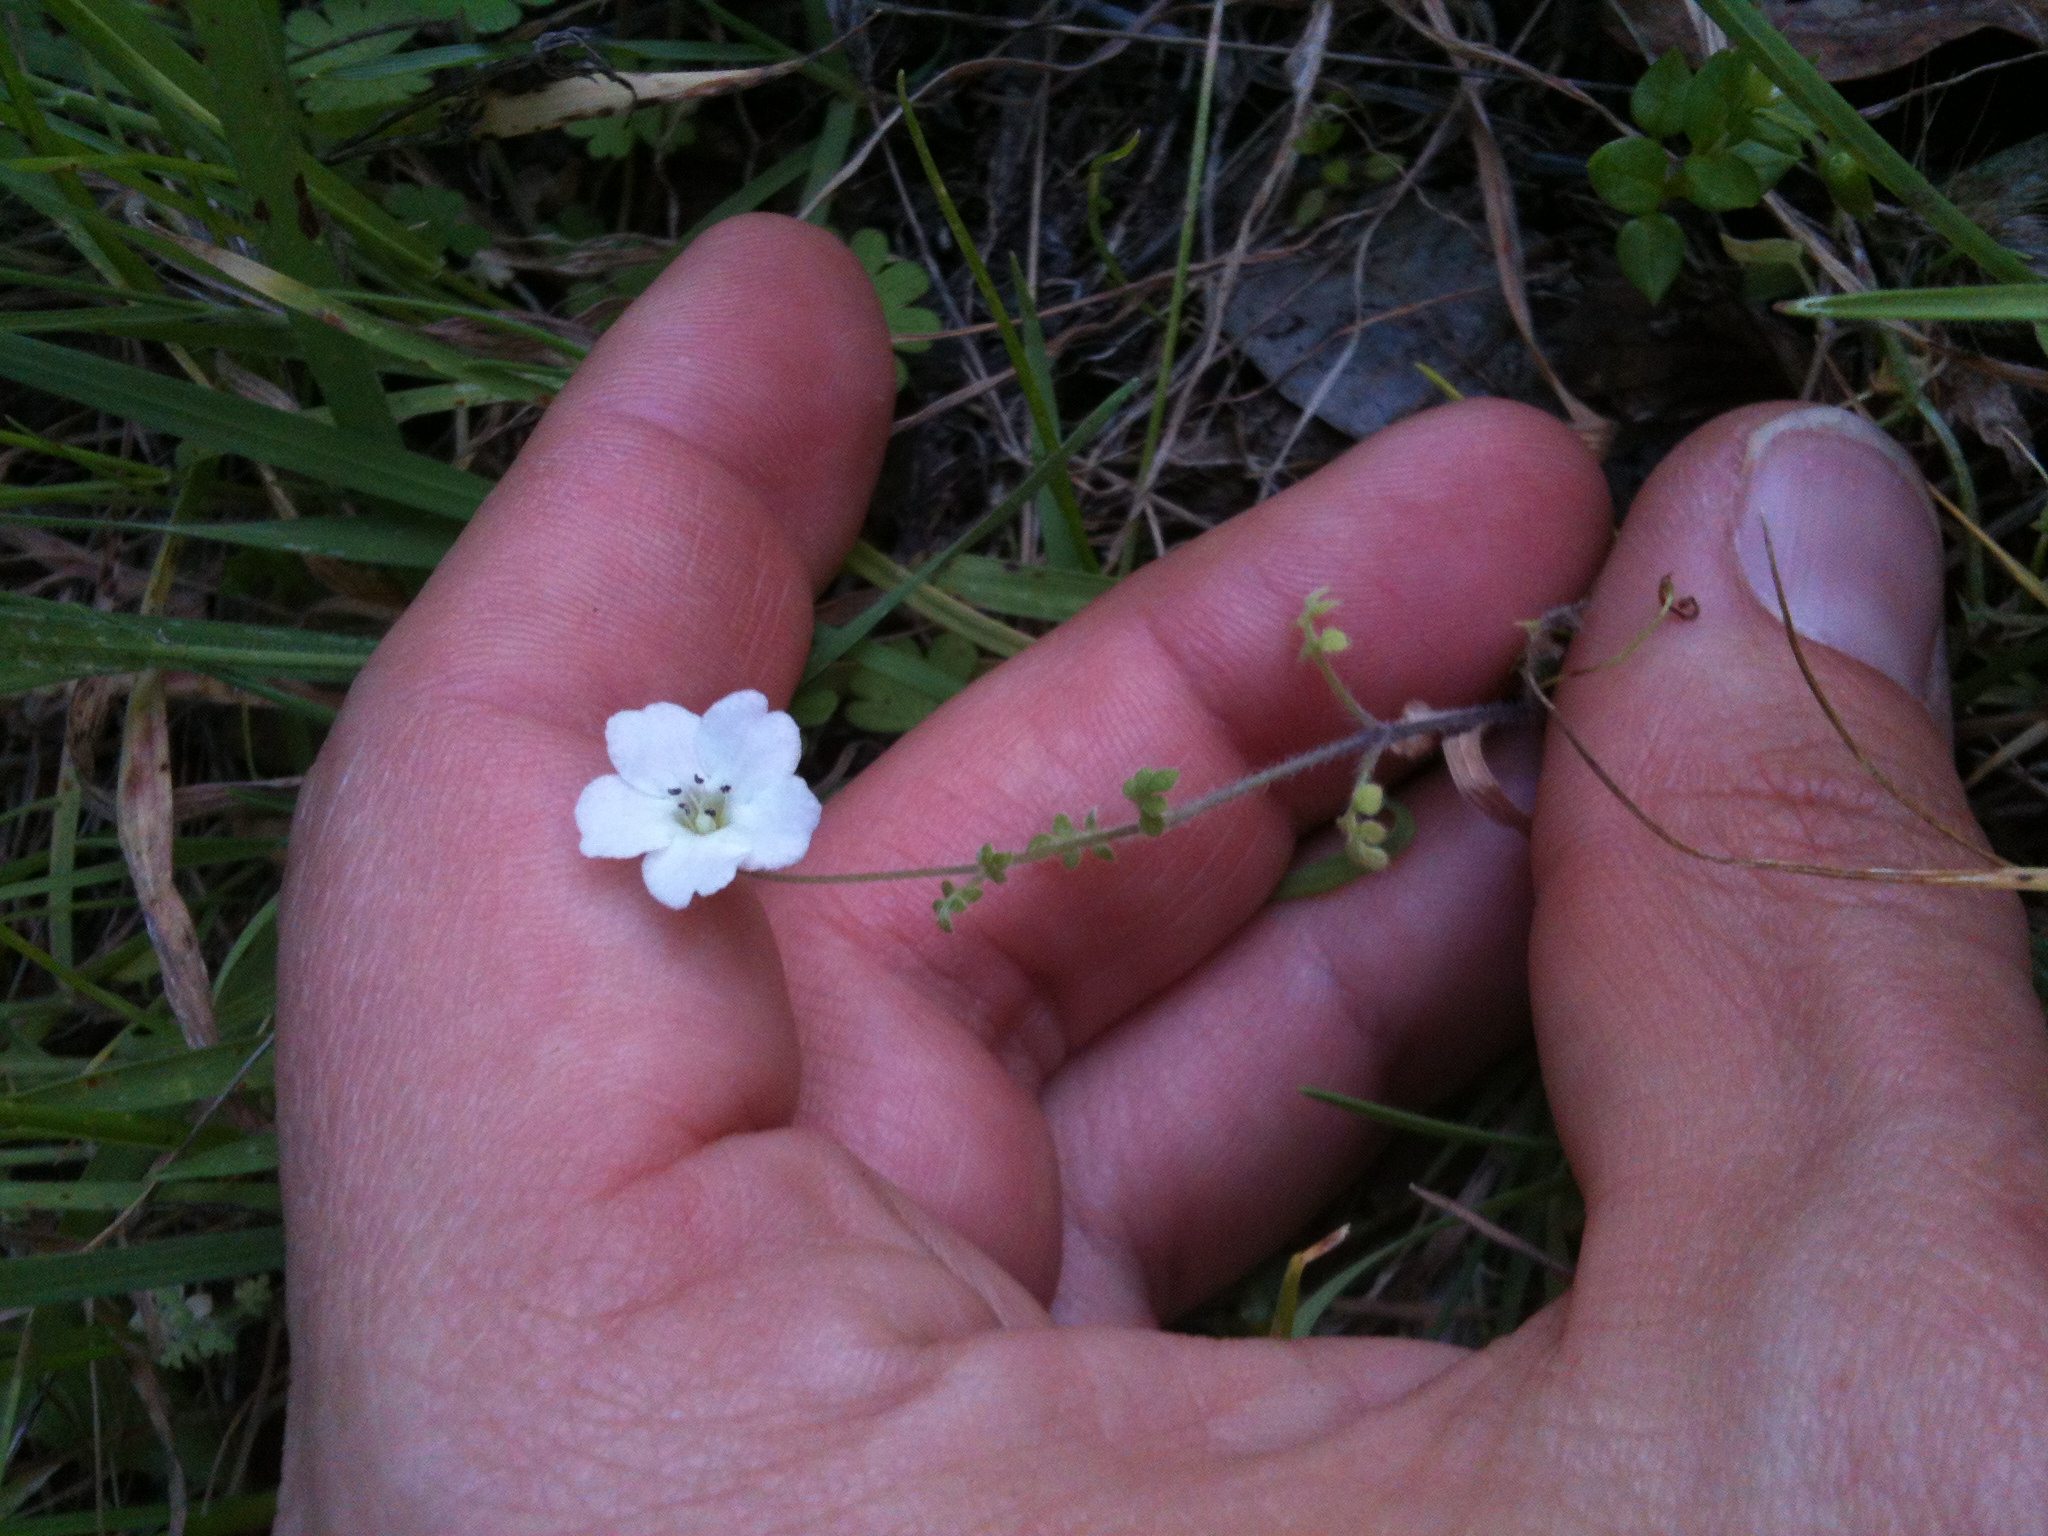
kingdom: Plantae
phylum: Tracheophyta
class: Magnoliopsida
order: Boraginales
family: Hydrophyllaceae
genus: Nemophila
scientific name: Nemophila heterophylla
